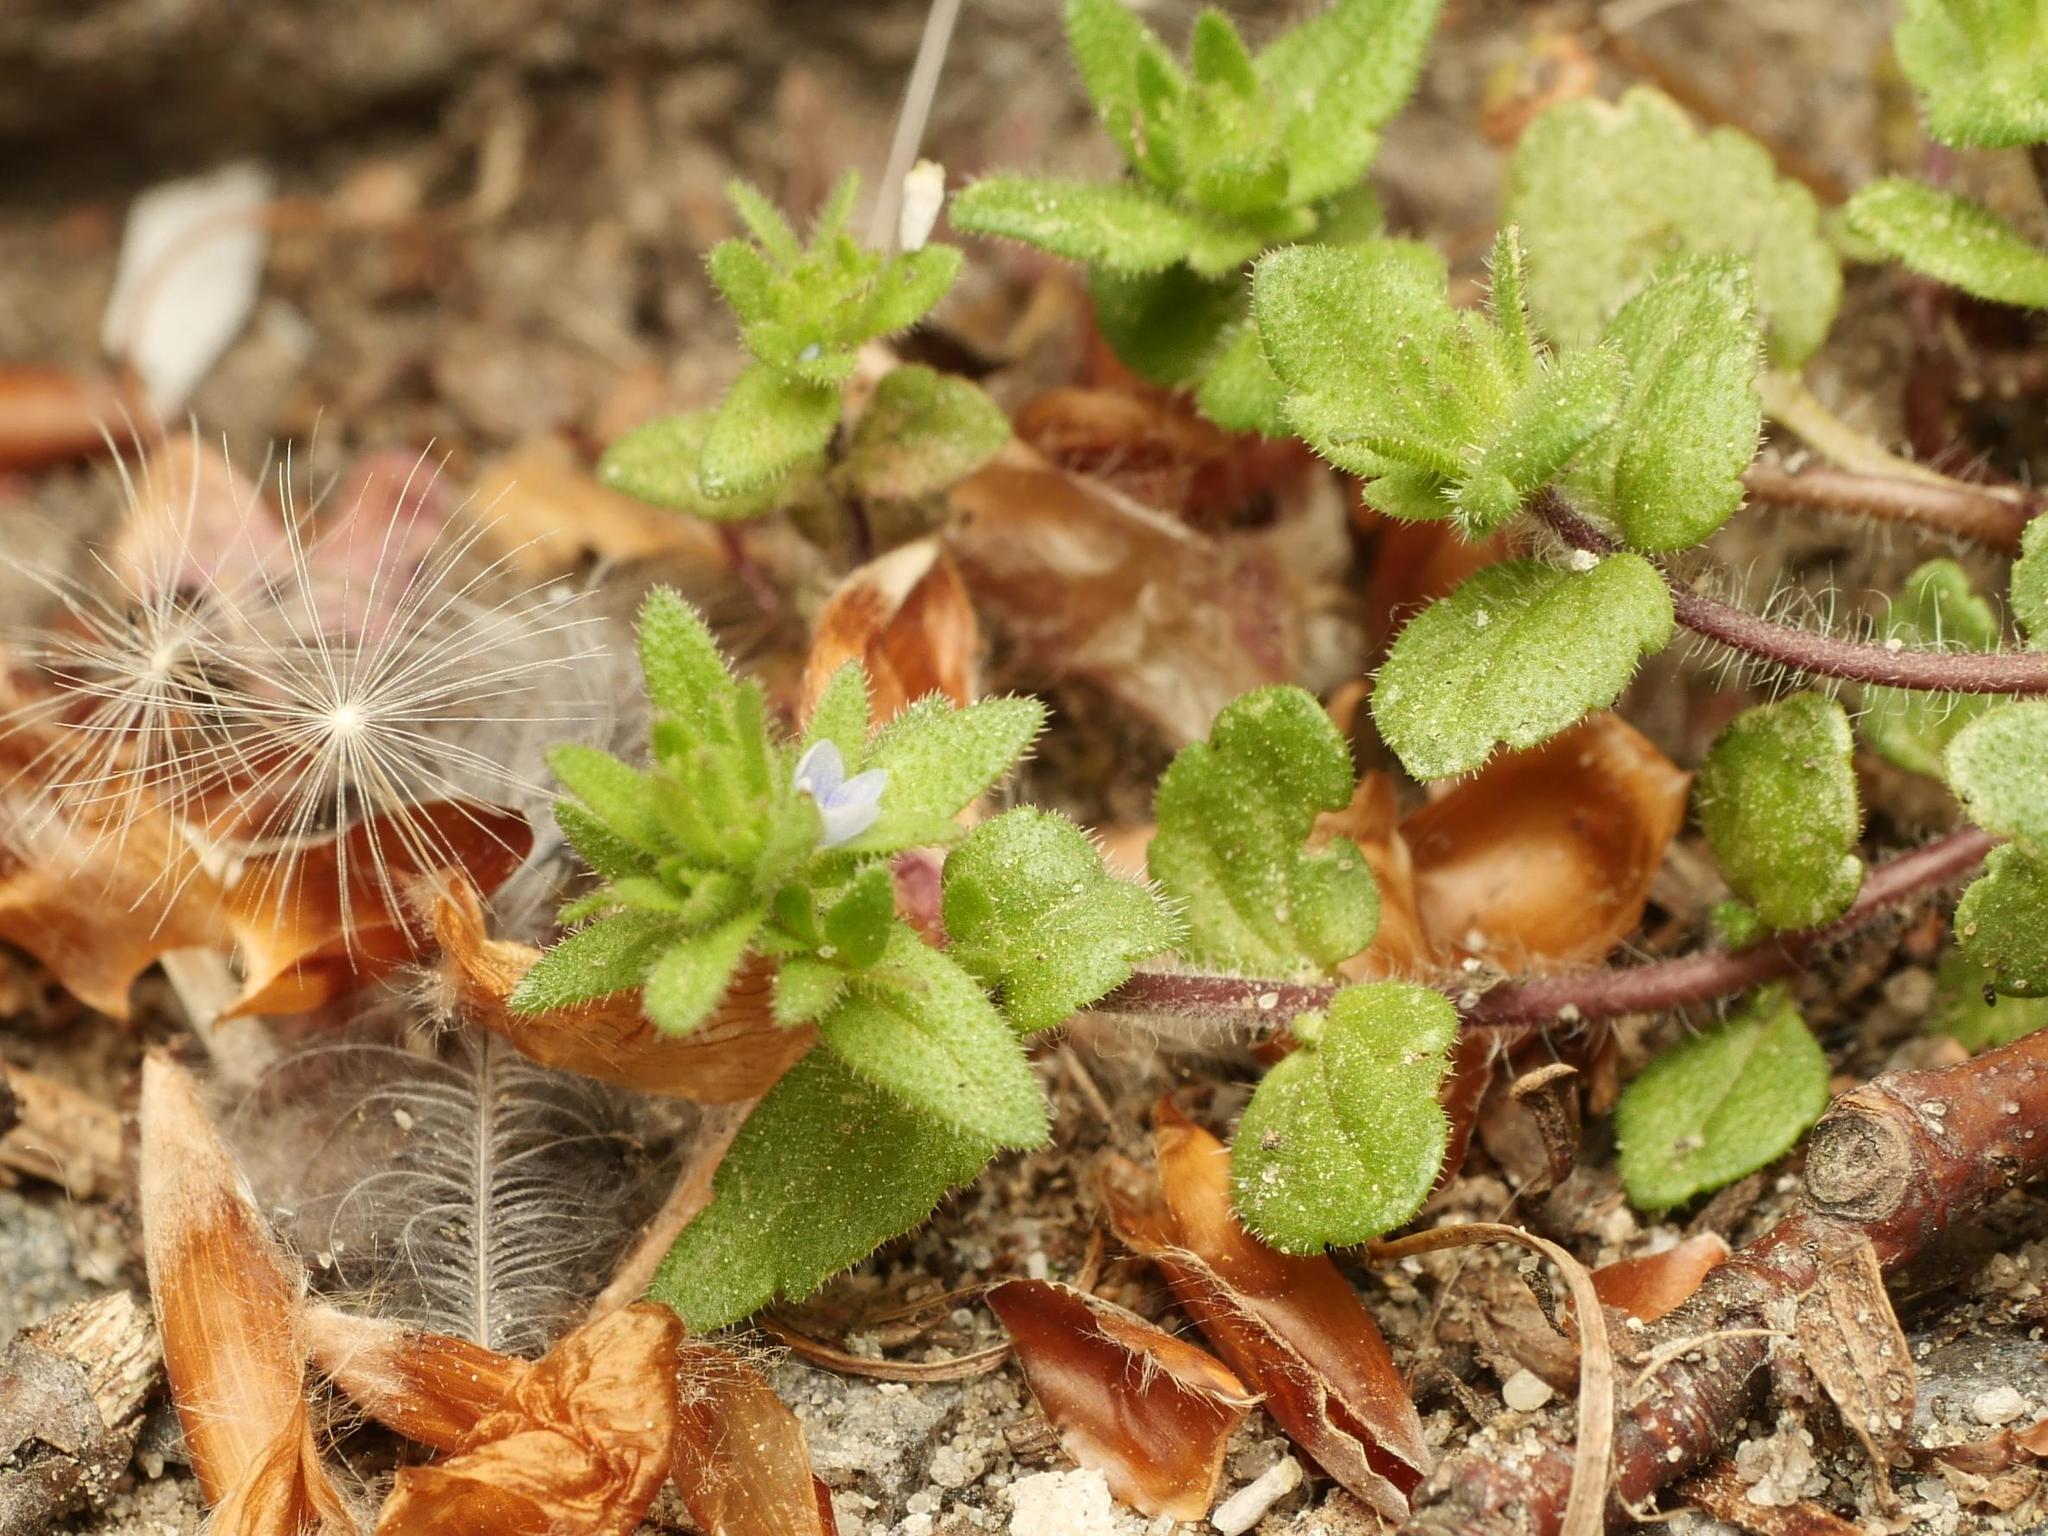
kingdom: Plantae
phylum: Tracheophyta
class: Magnoliopsida
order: Lamiales
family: Plantaginaceae
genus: Veronica
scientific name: Veronica arvensis
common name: Corn speedwell
